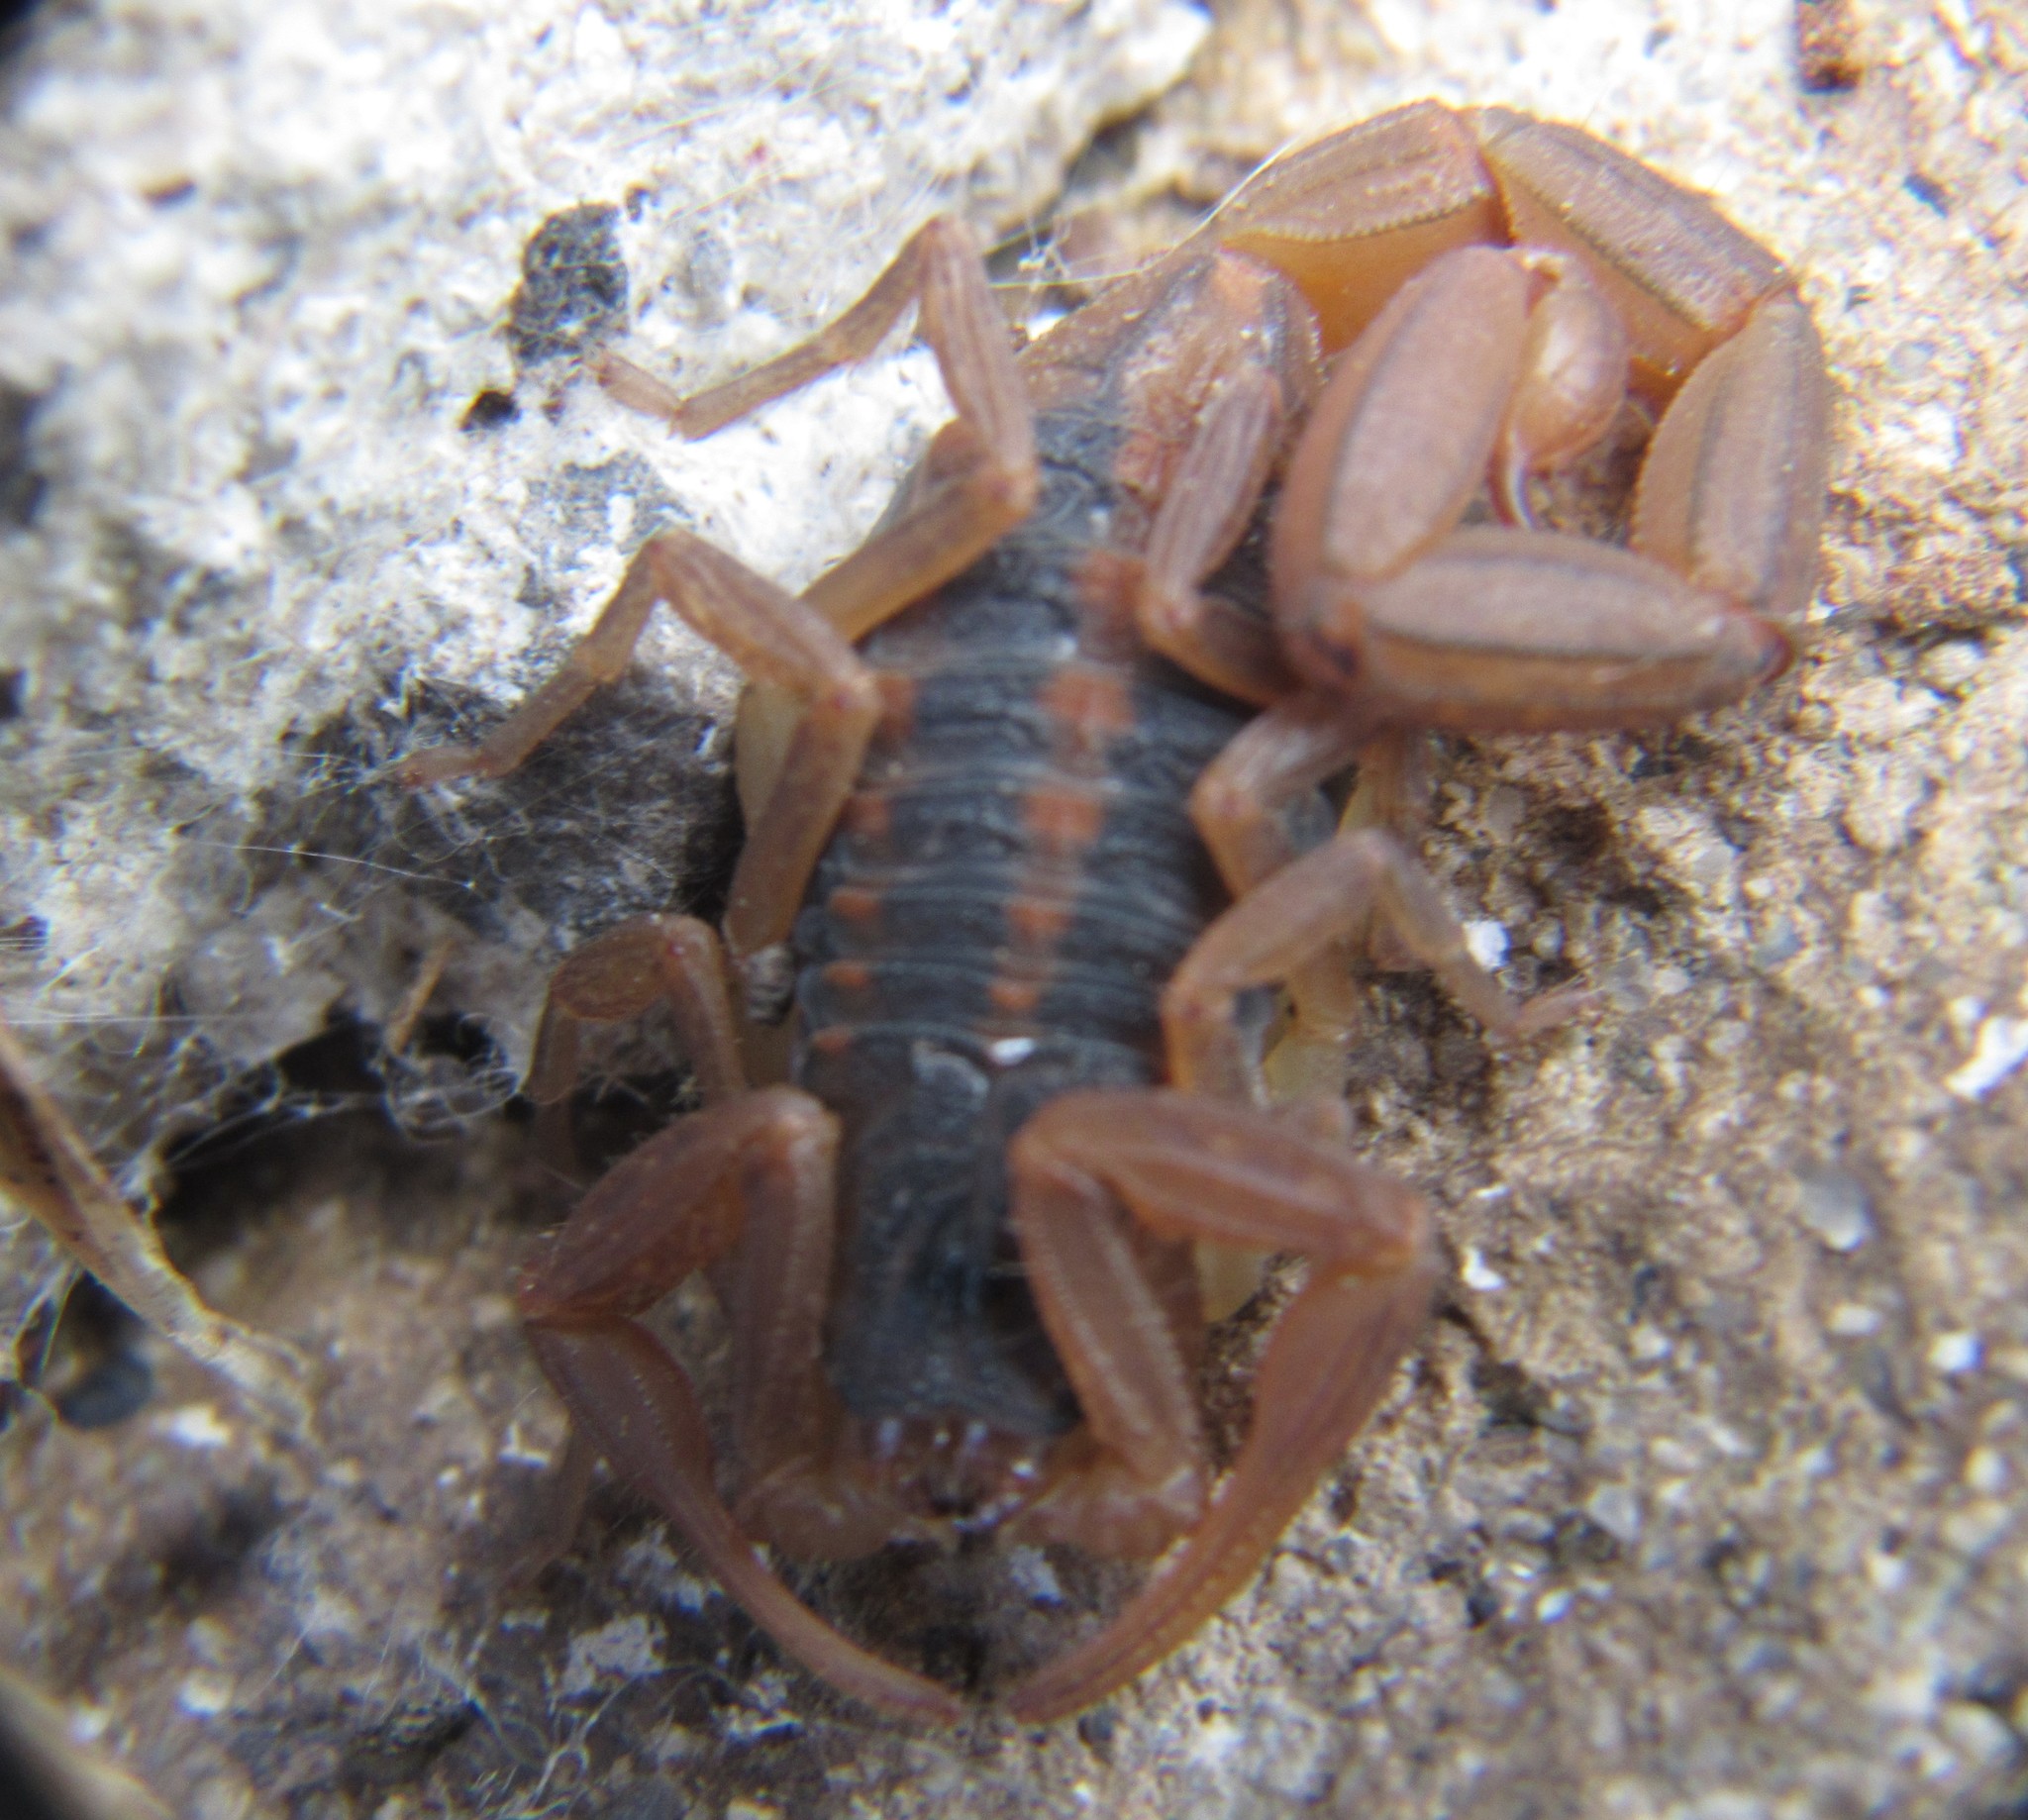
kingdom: Animalia
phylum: Arthropoda
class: Arachnida
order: Scorpiones
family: Buthidae
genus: Centruroides
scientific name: Centruroides ornatus
